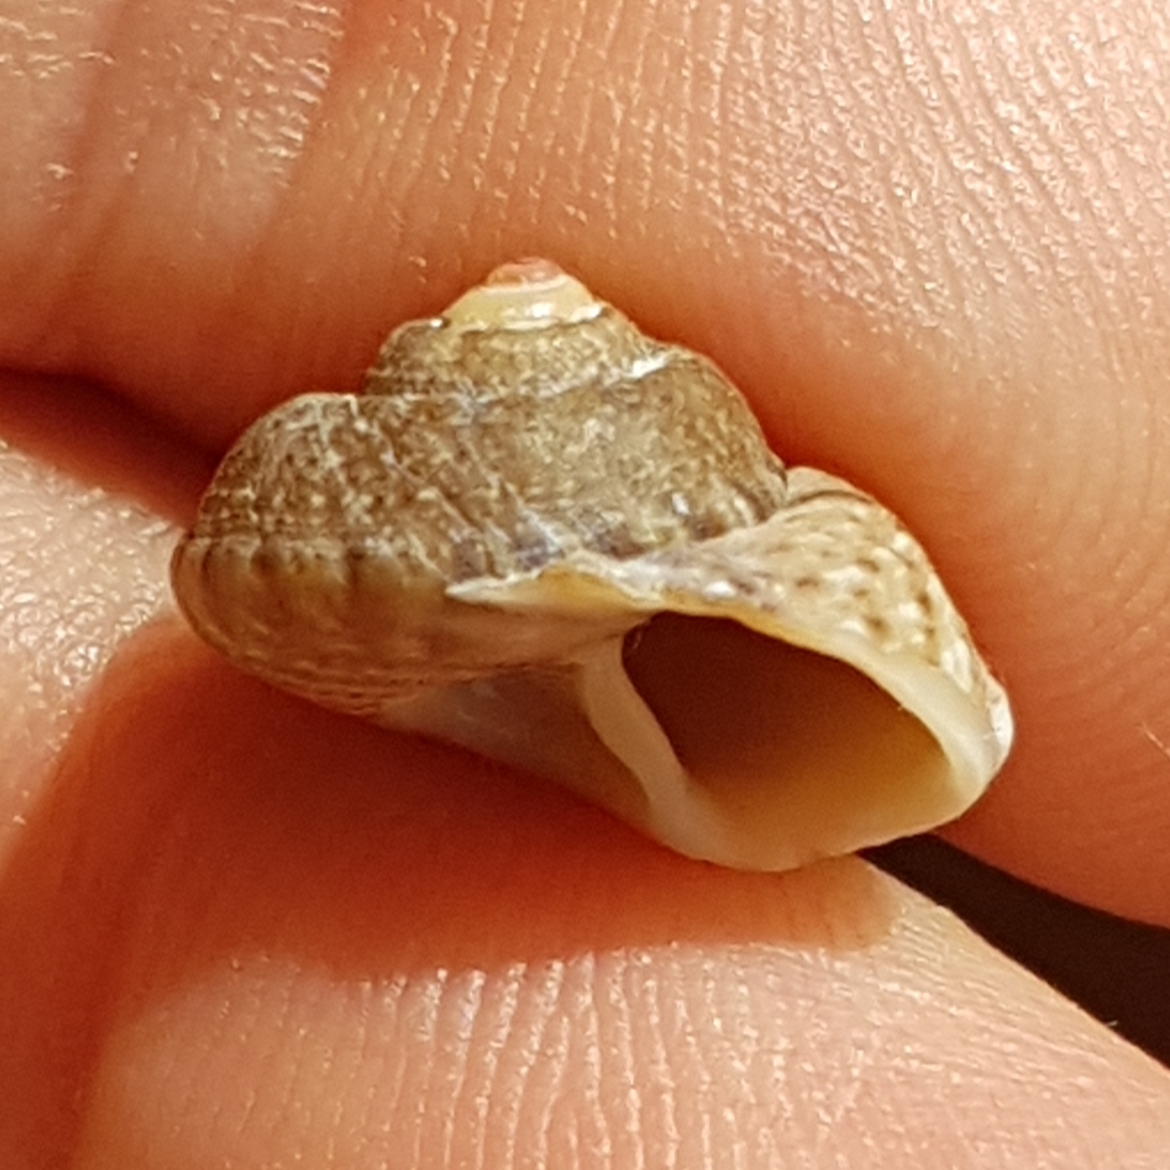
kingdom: Animalia
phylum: Mollusca
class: Gastropoda
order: Trochida
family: Trochidae
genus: Gibbula
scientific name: Gibbula magus
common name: Turban top shell
